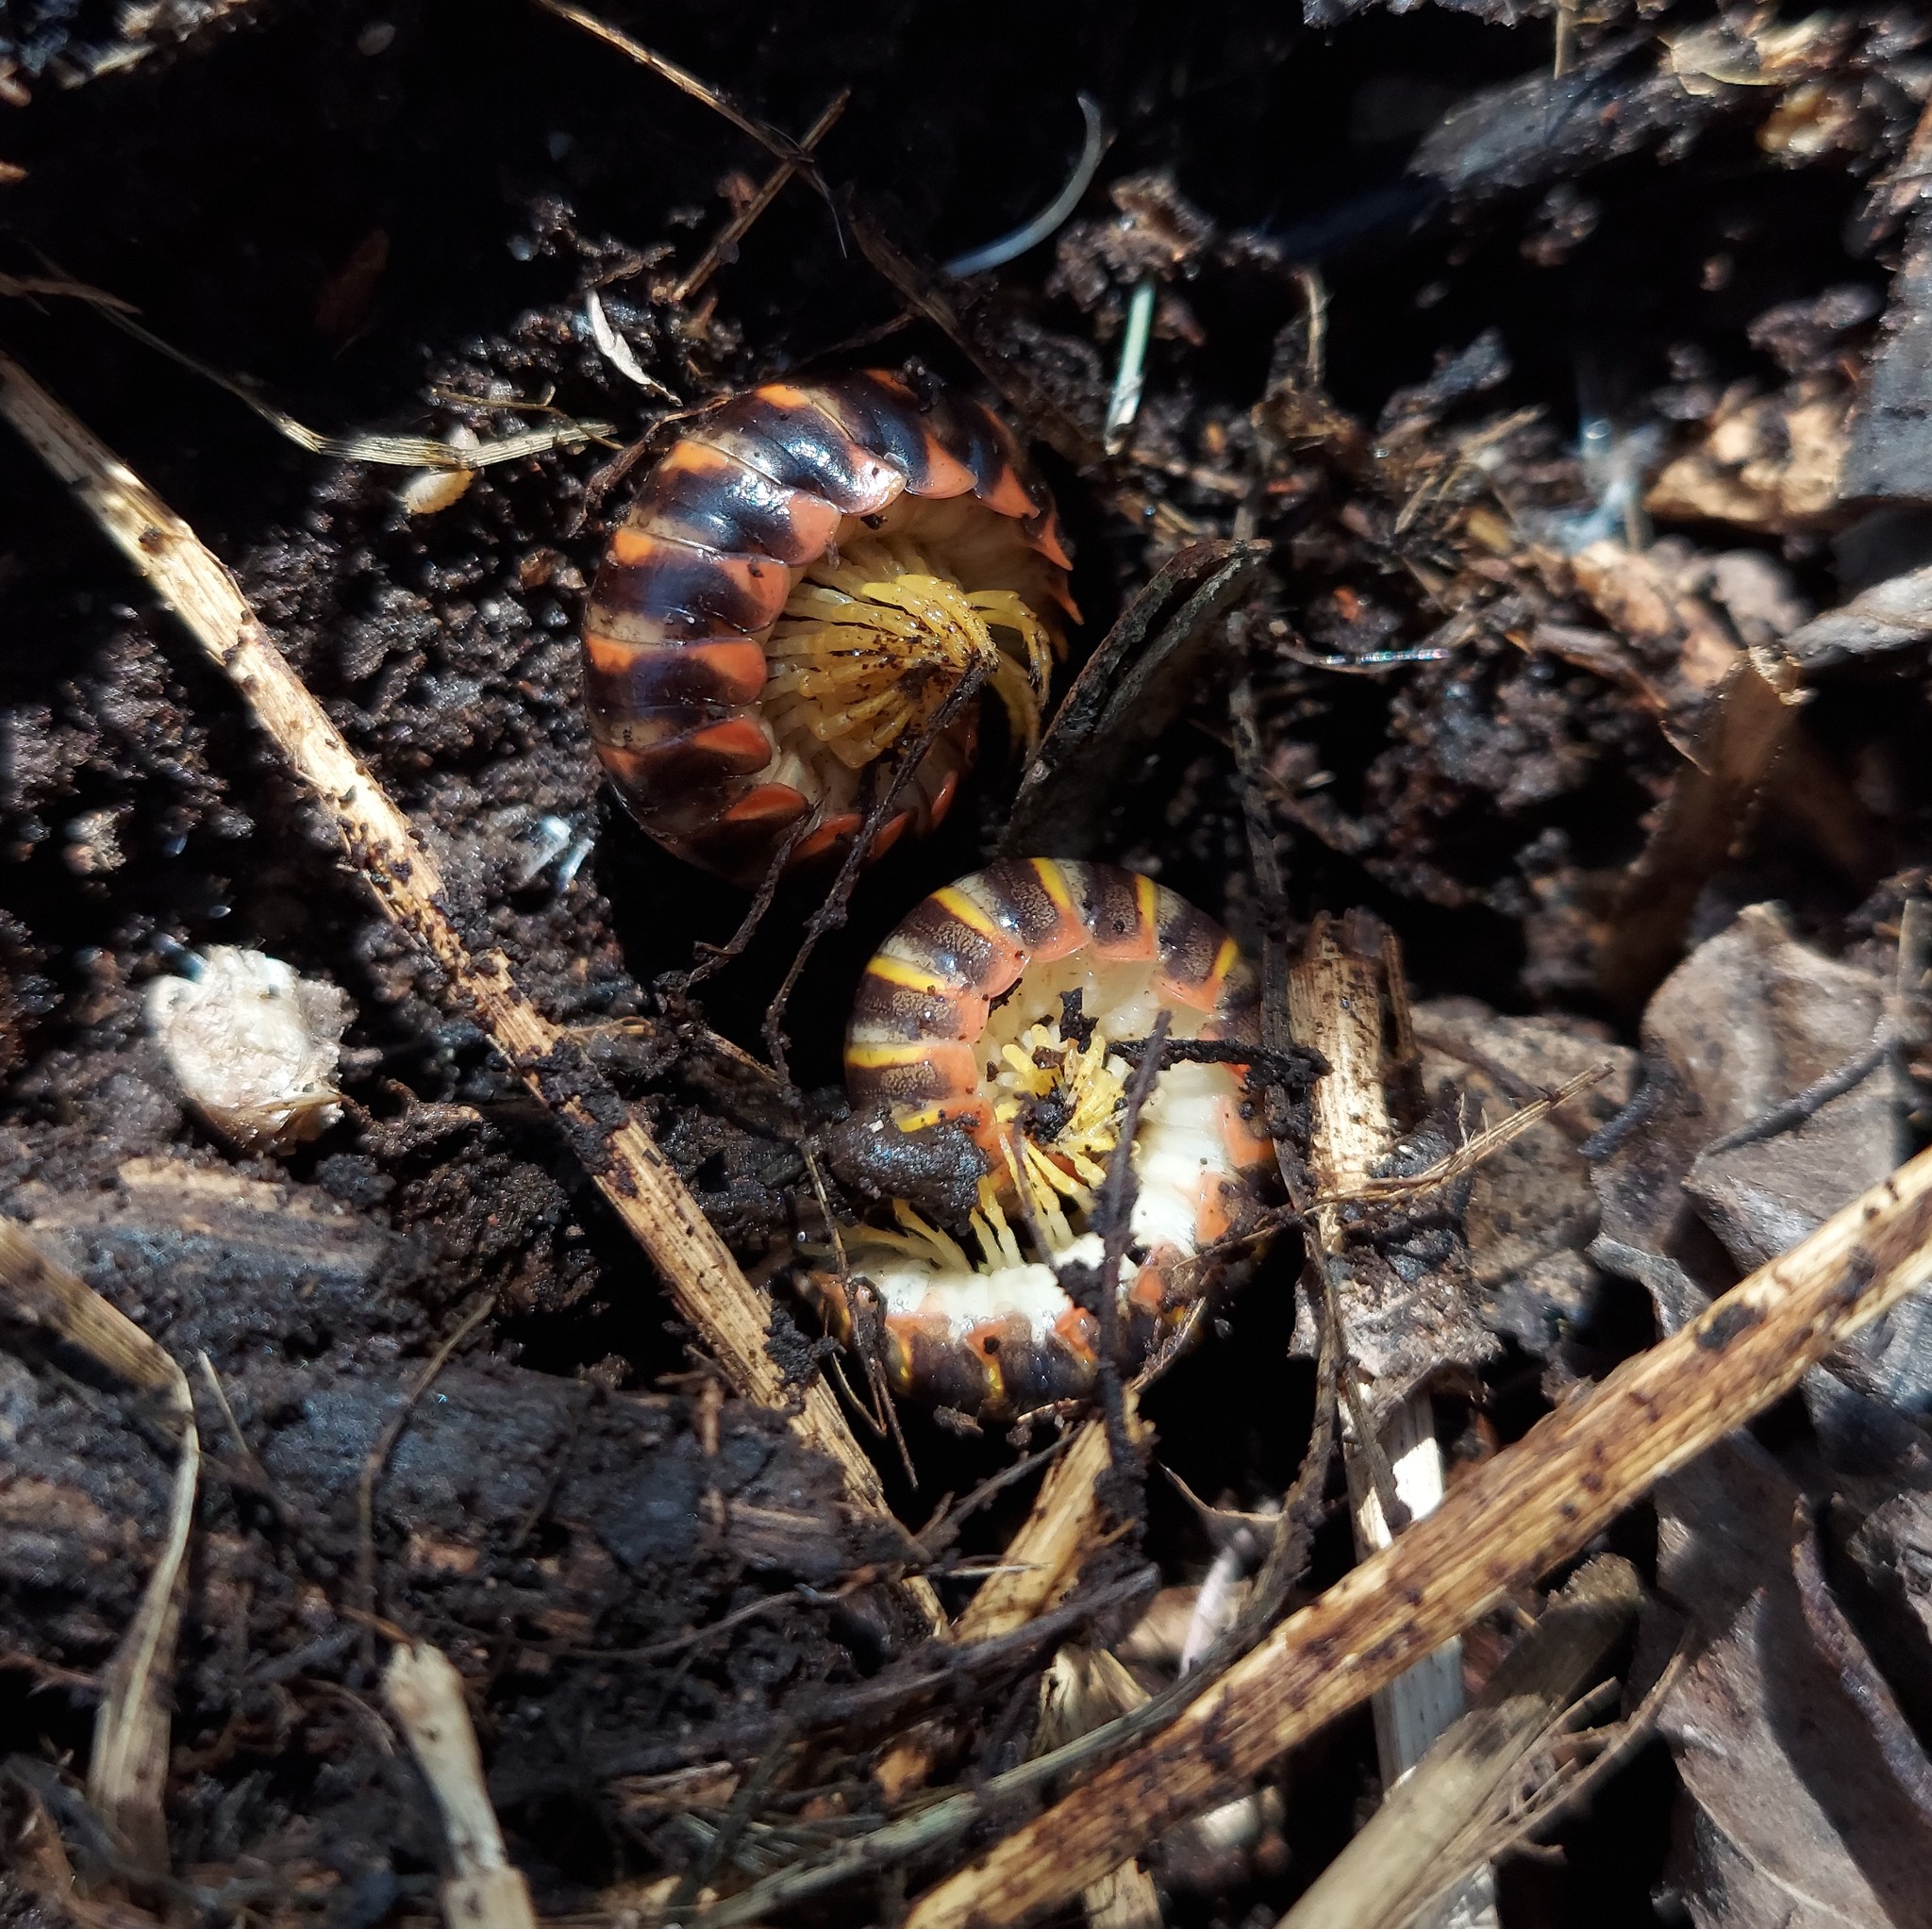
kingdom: Animalia
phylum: Arthropoda
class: Diplopoda
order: Polydesmida
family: Xystodesmidae
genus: Apheloria
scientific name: Apheloria virginiensis
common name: Black-and-gold flat millipede
